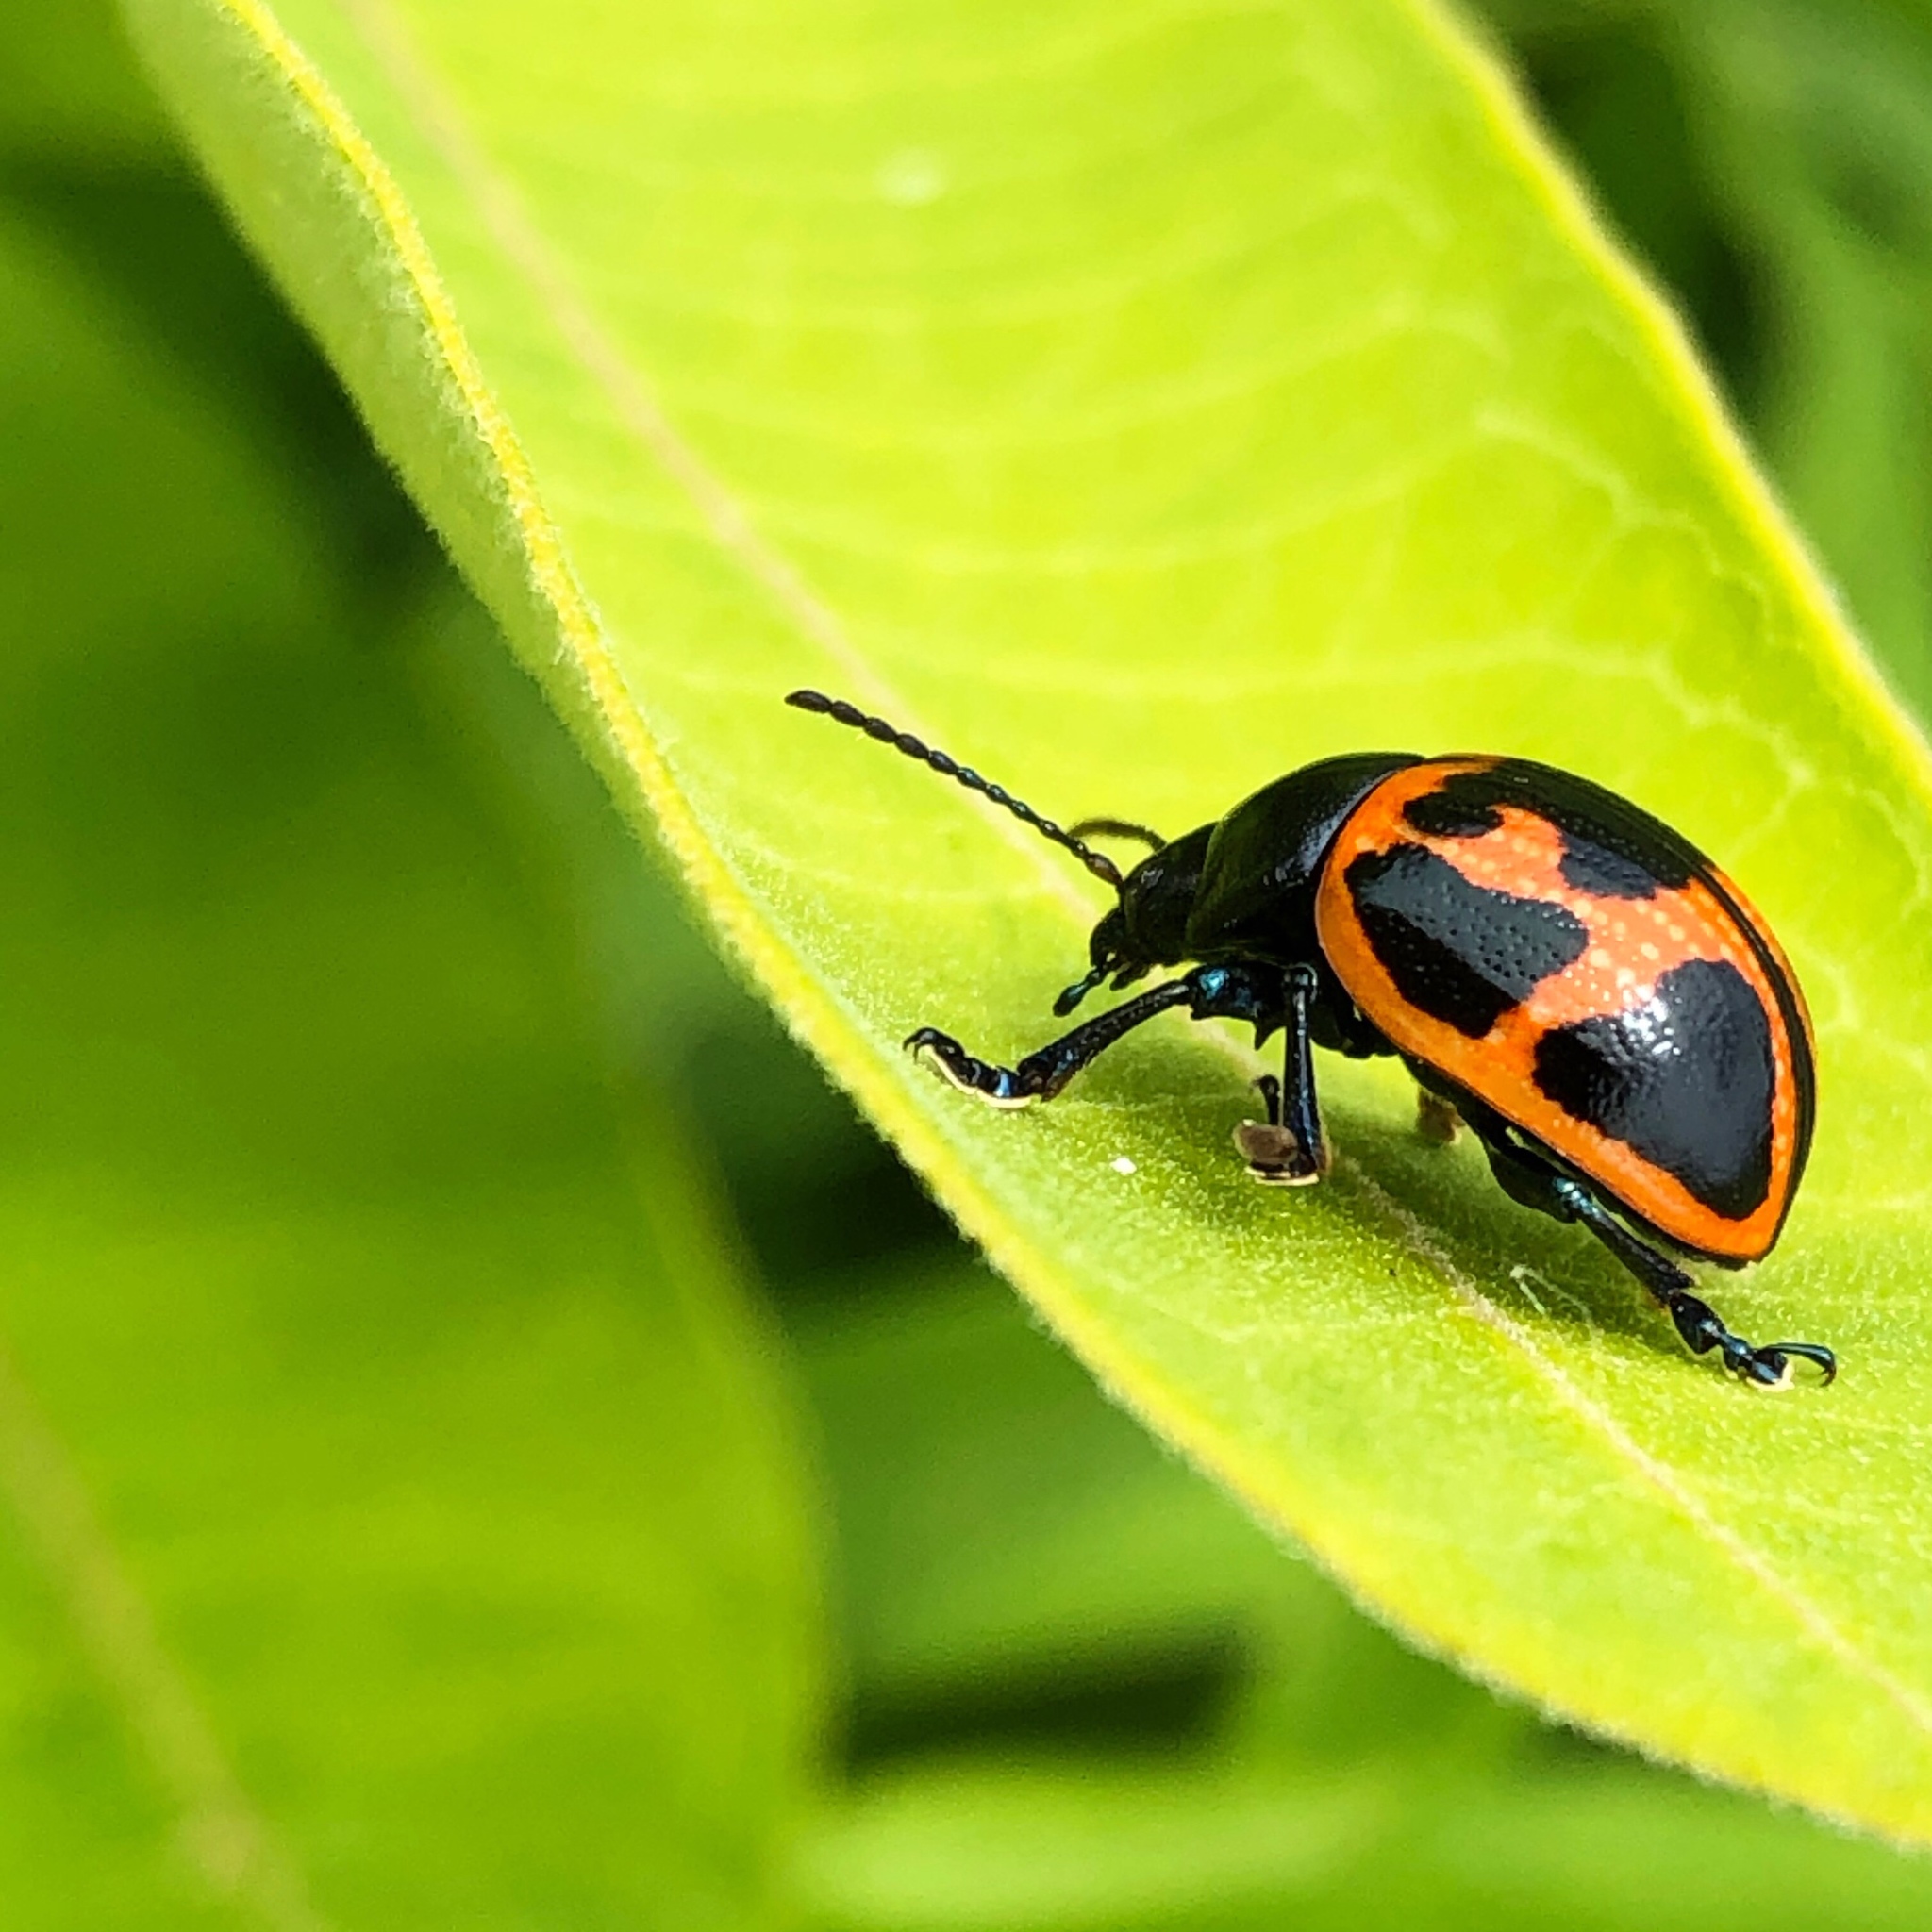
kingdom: Animalia
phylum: Arthropoda
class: Insecta
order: Coleoptera
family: Chrysomelidae
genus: Labidomera
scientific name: Labidomera clivicollis
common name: Swamp milkweed leaf beetle
